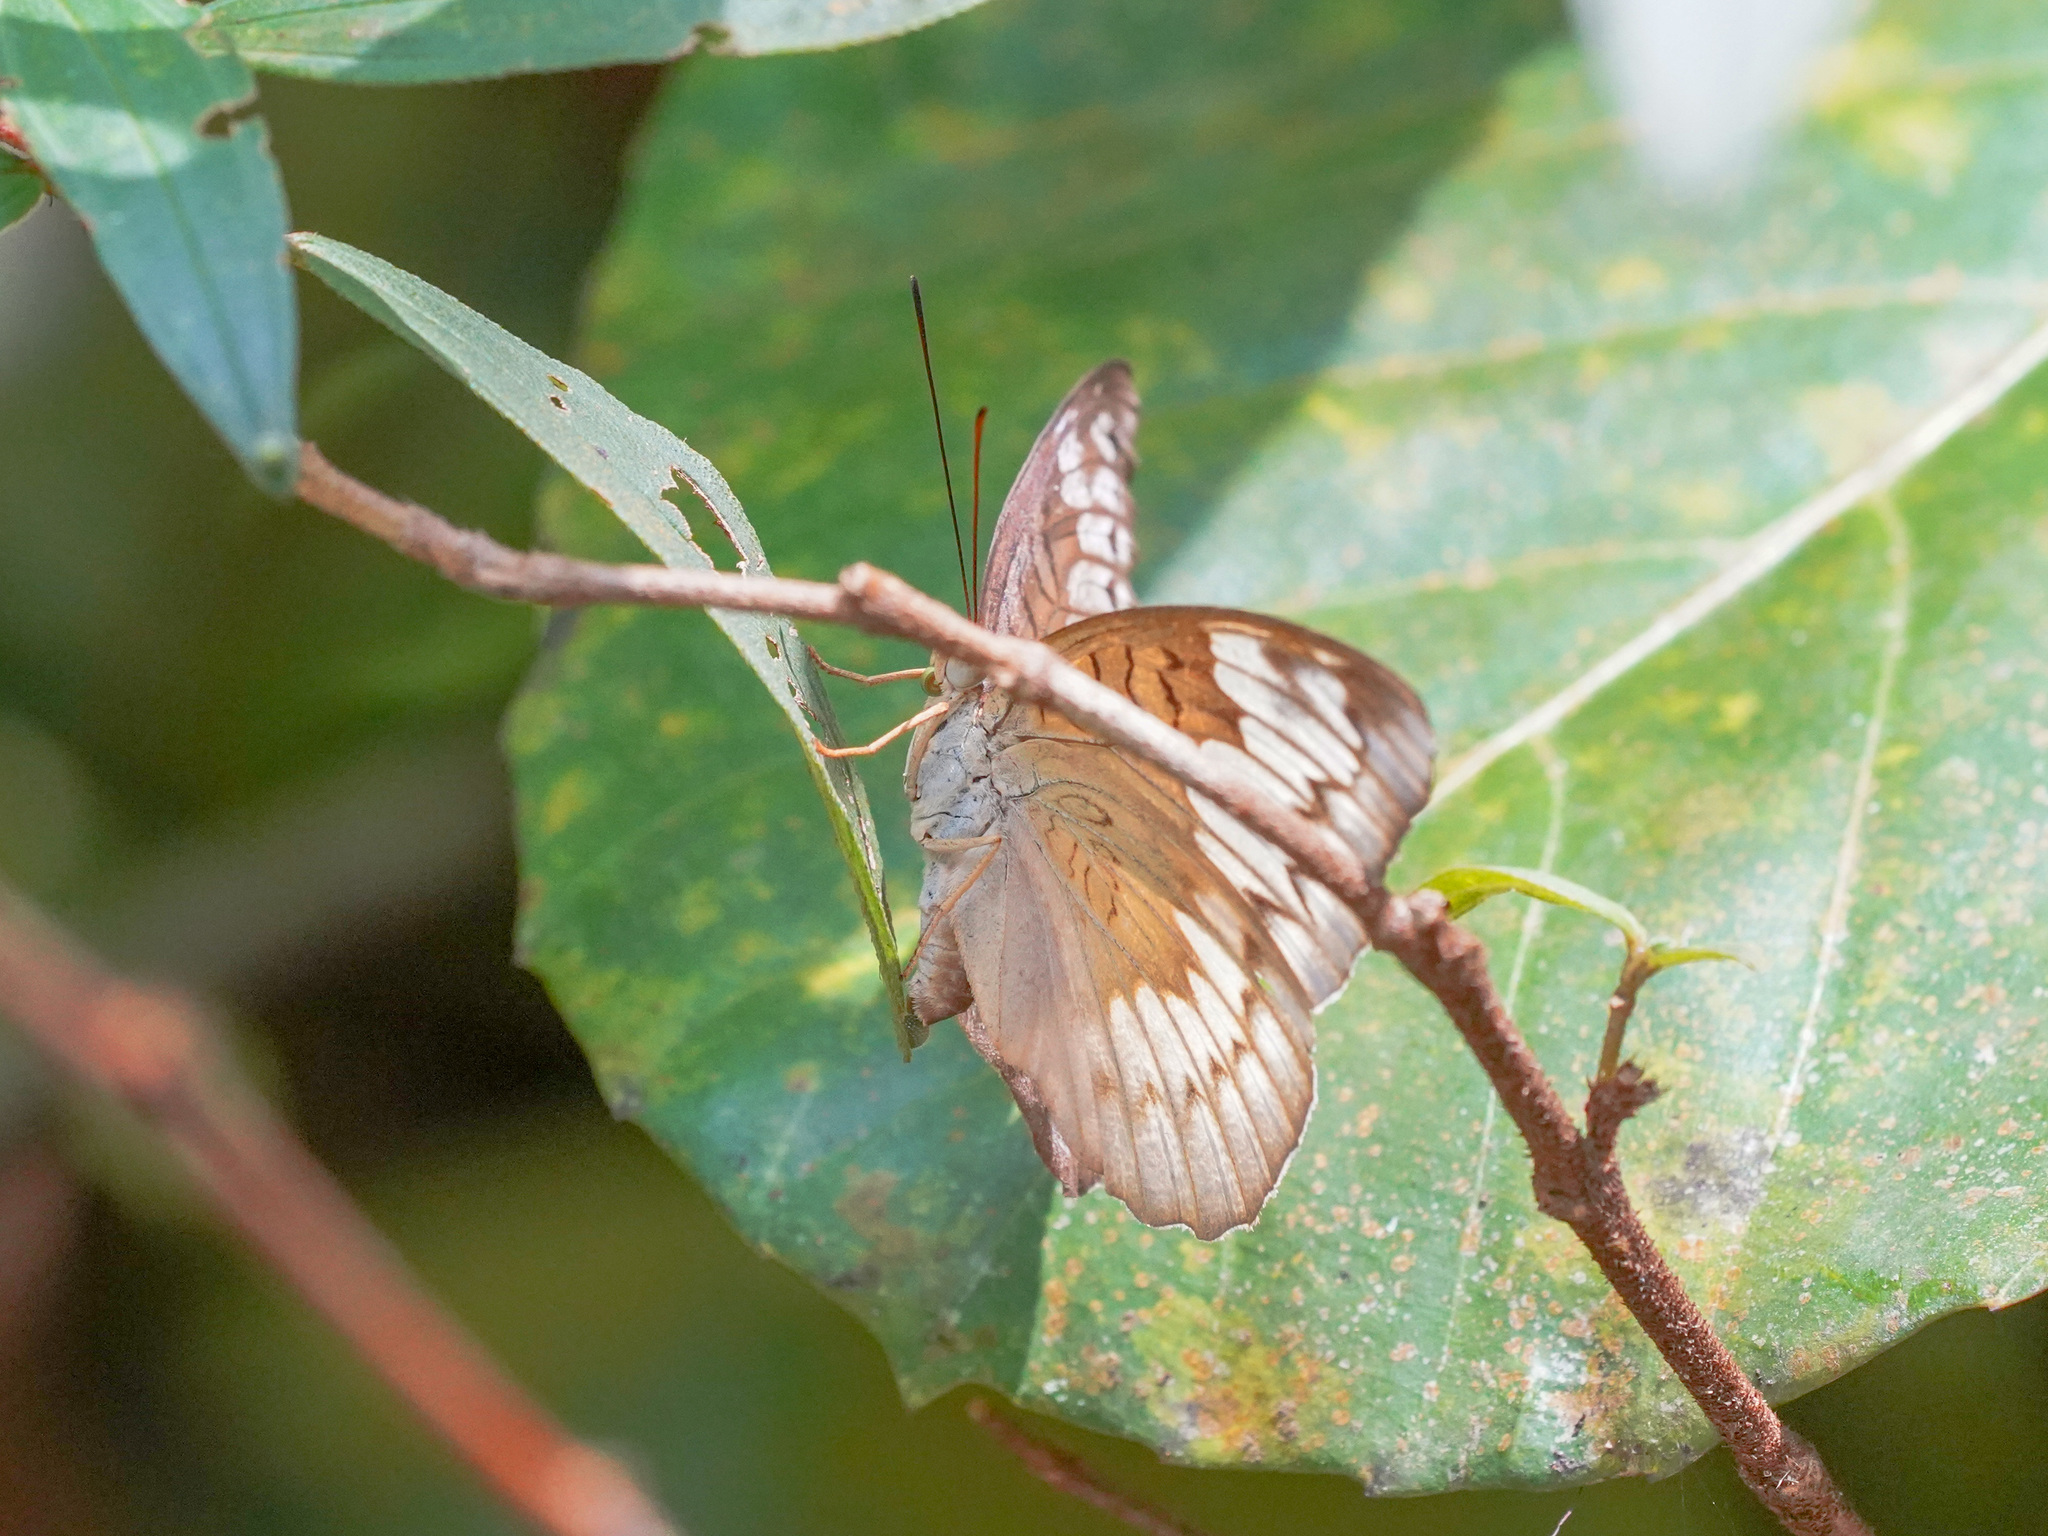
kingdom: Animalia
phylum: Arthropoda
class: Insecta
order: Lepidoptera
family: Nymphalidae
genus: Tanaecia
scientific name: Tanaecia iapis
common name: Horsfield's baron
